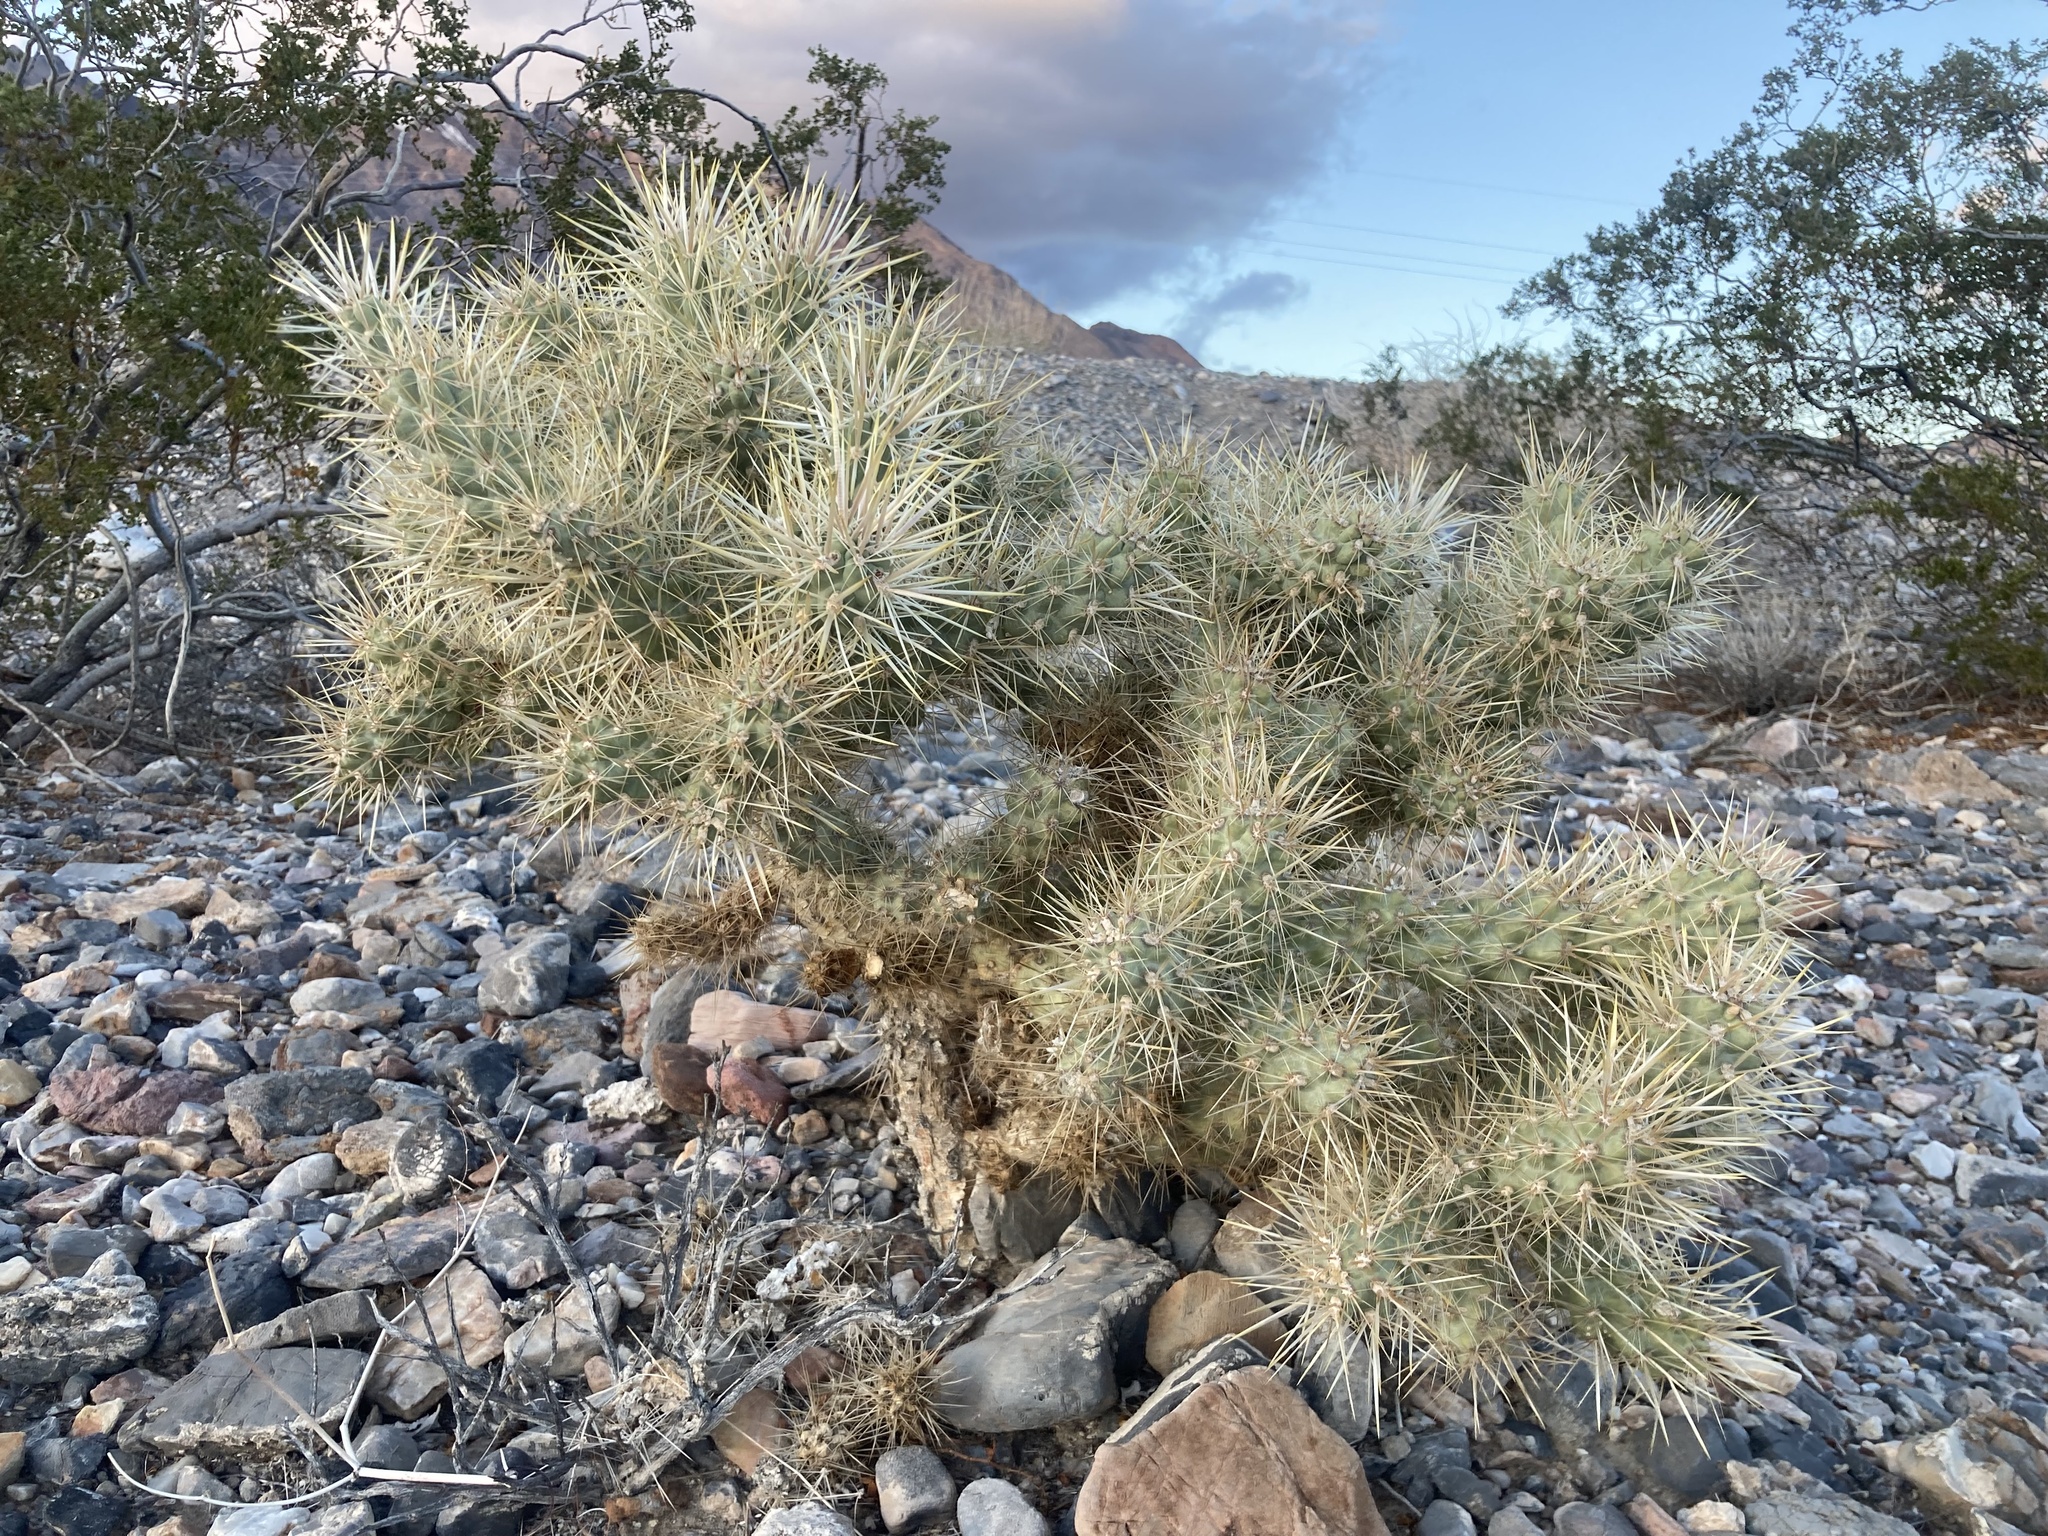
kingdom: Plantae
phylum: Tracheophyta
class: Magnoliopsida
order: Caryophyllales
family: Cactaceae
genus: Cylindropuntia
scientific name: Cylindropuntia echinocarpa
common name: Ground cholla
